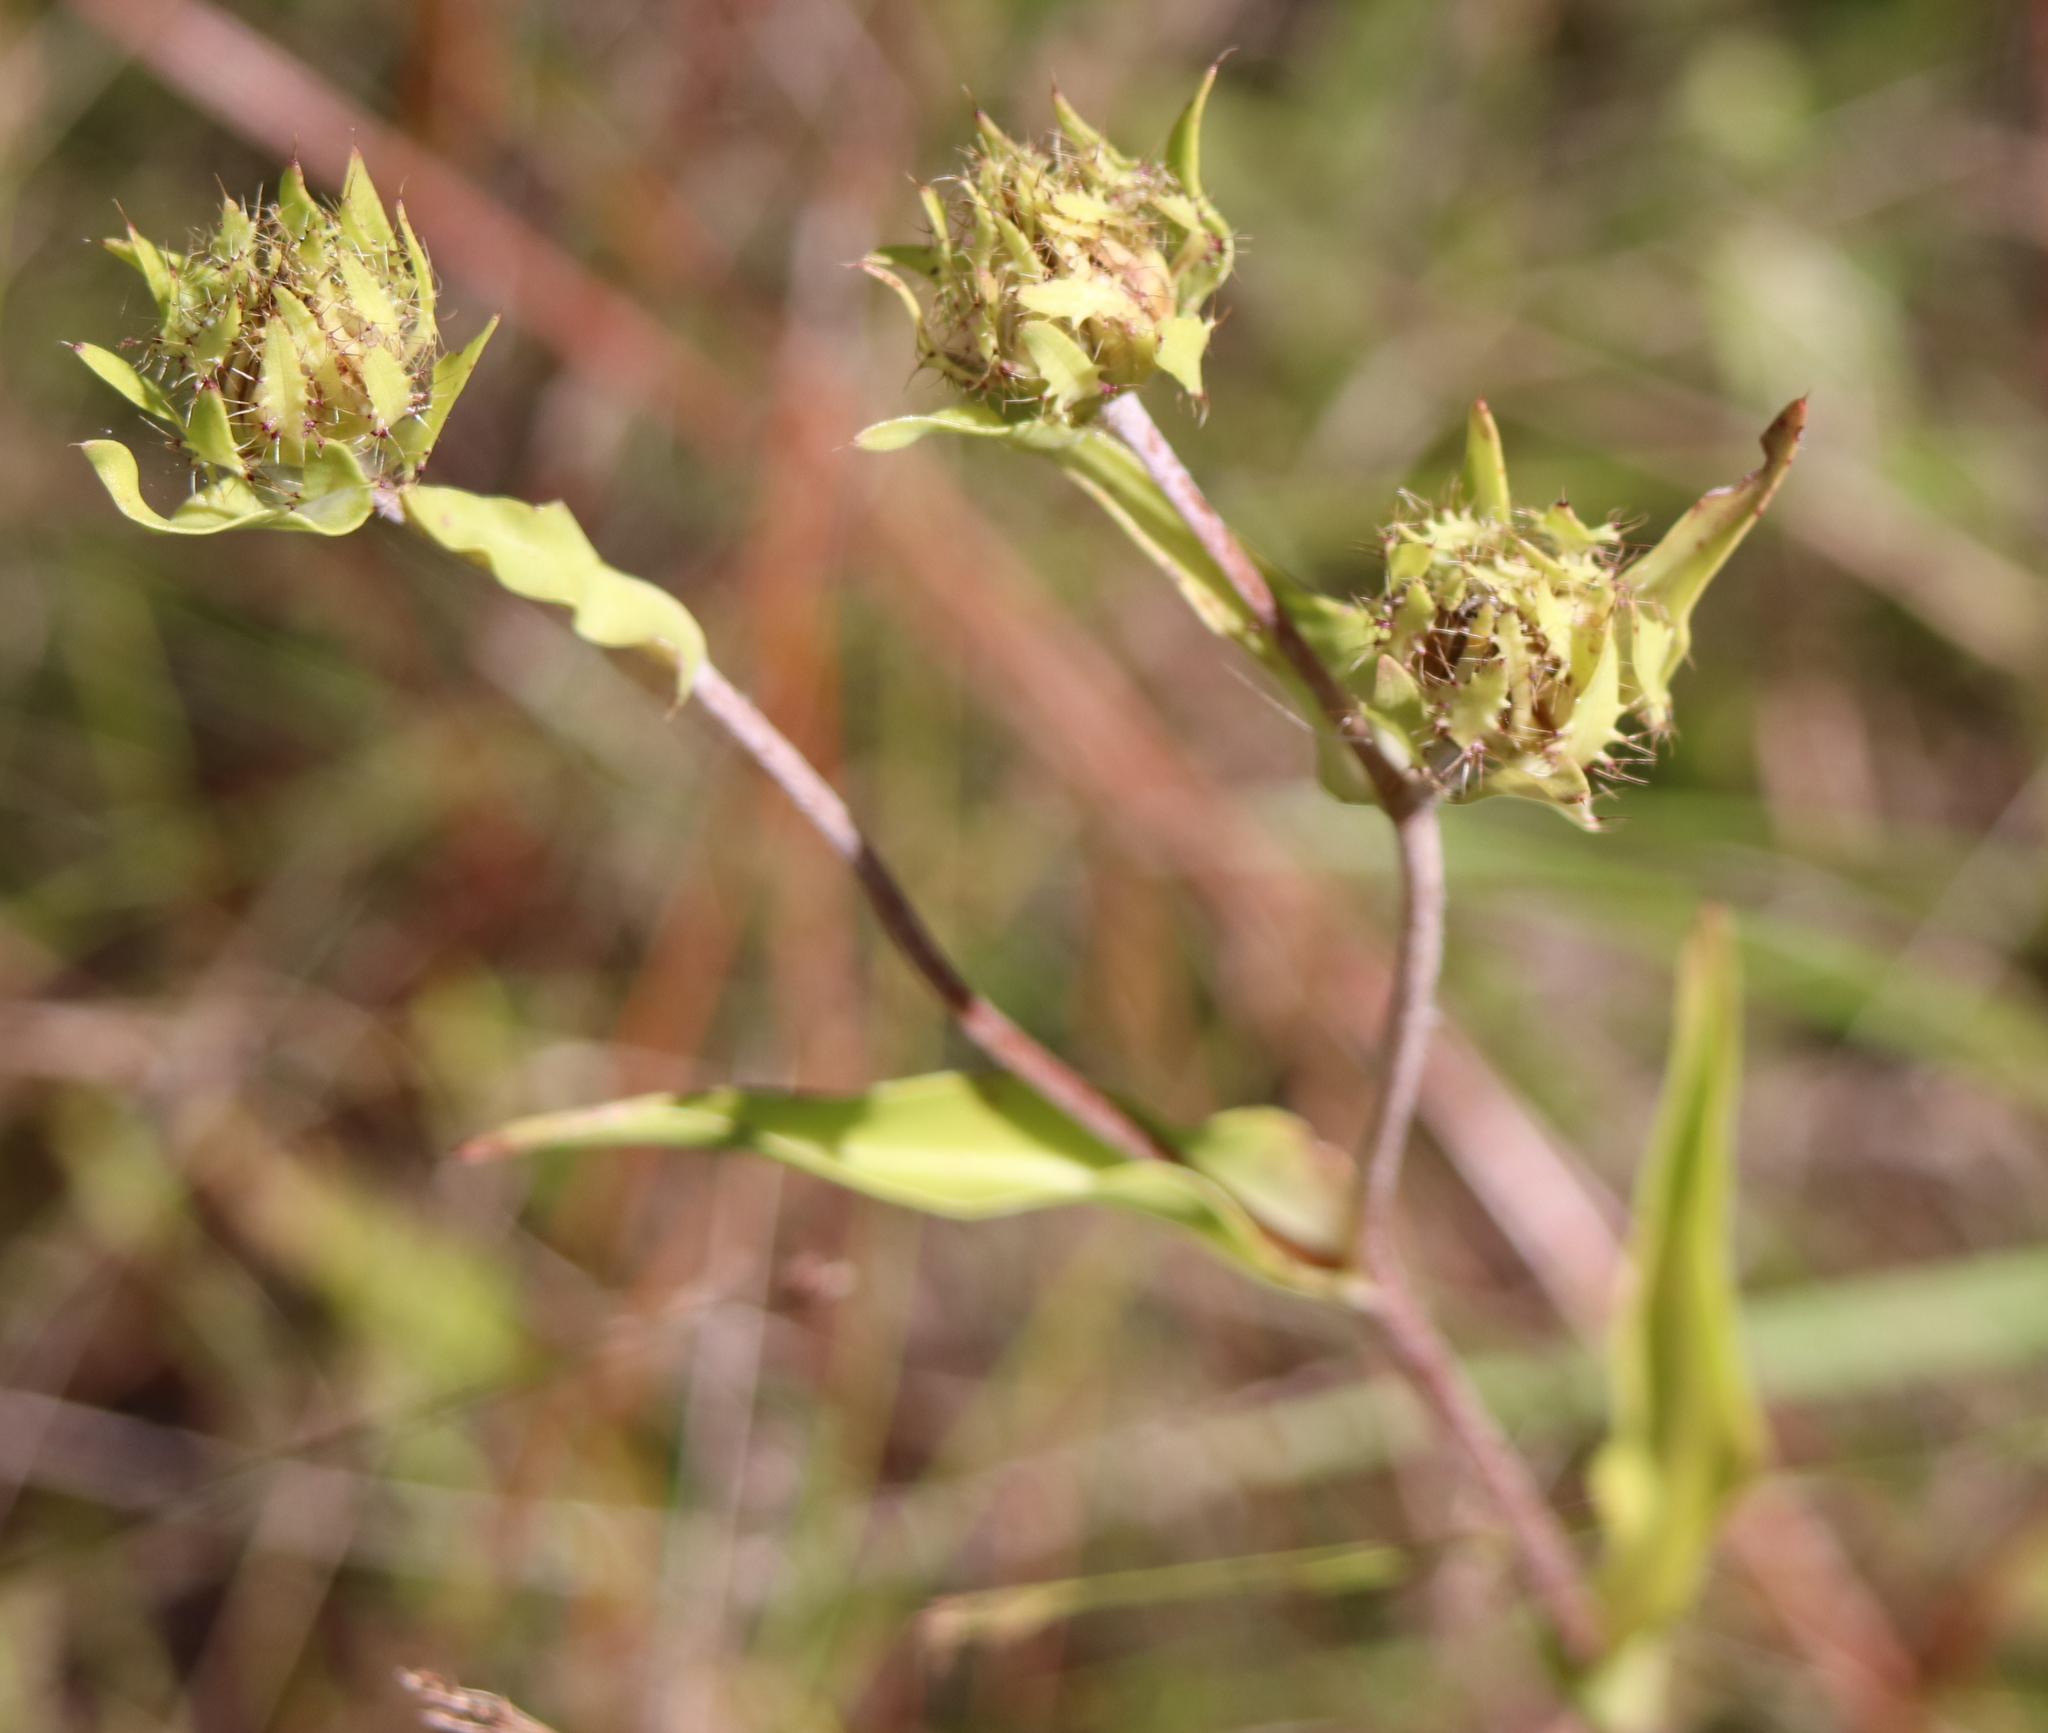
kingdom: Plantae
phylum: Tracheophyta
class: Magnoliopsida
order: Asterales
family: Asteraceae
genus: Stokesia
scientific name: Stokesia laevis
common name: Stokes'-aster
